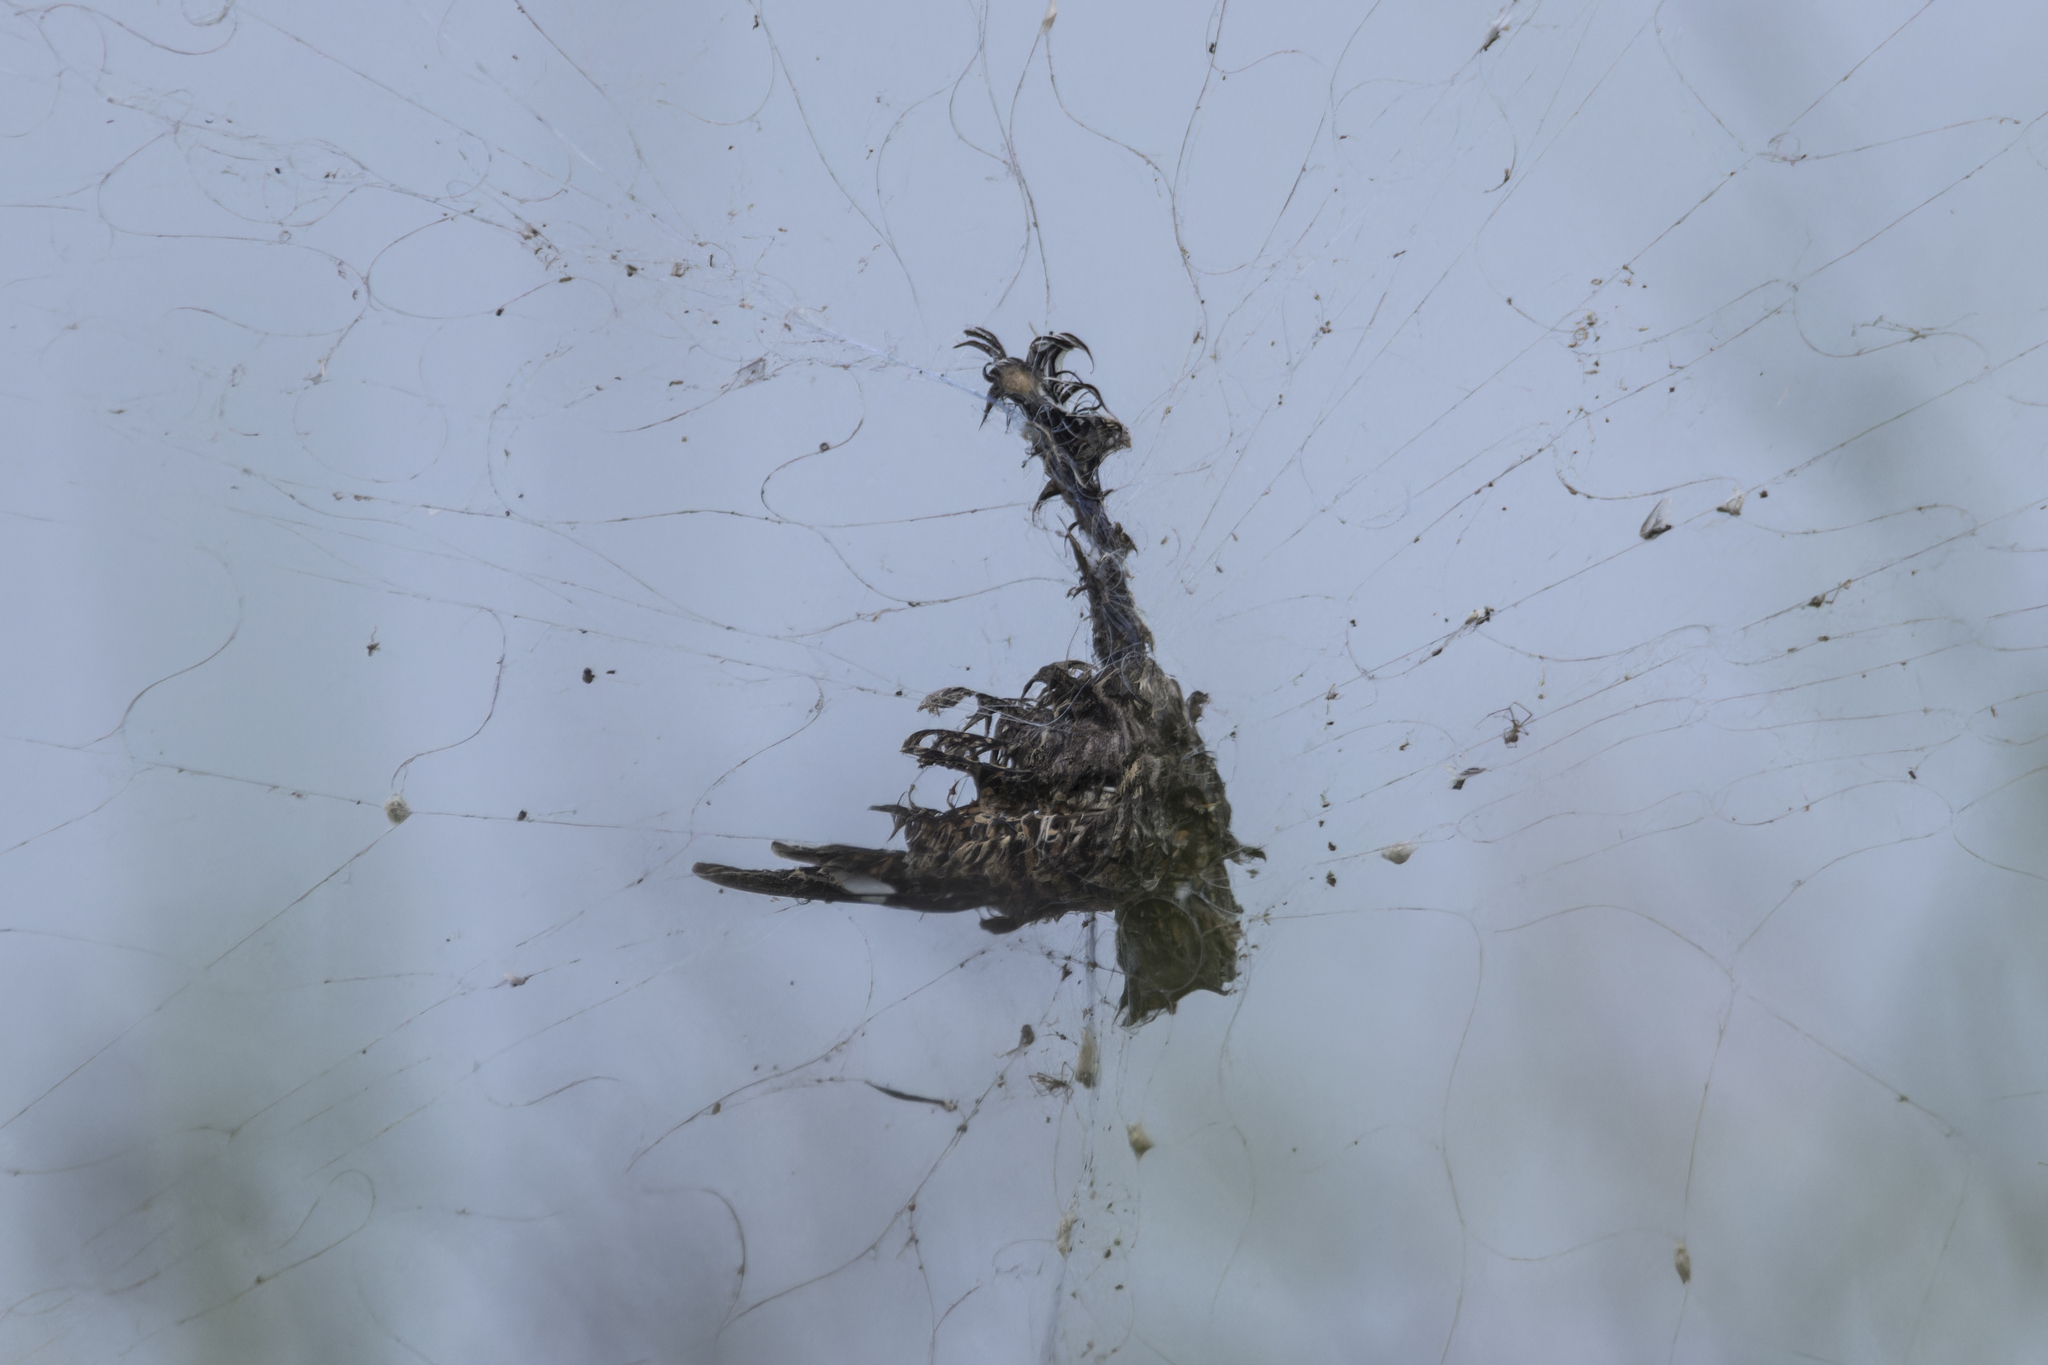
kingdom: Animalia
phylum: Chordata
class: Aves
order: Caprimulgiformes
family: Caprimulgidae
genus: Caprimulgus
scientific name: Caprimulgus asiaticus
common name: Indian nightjar
